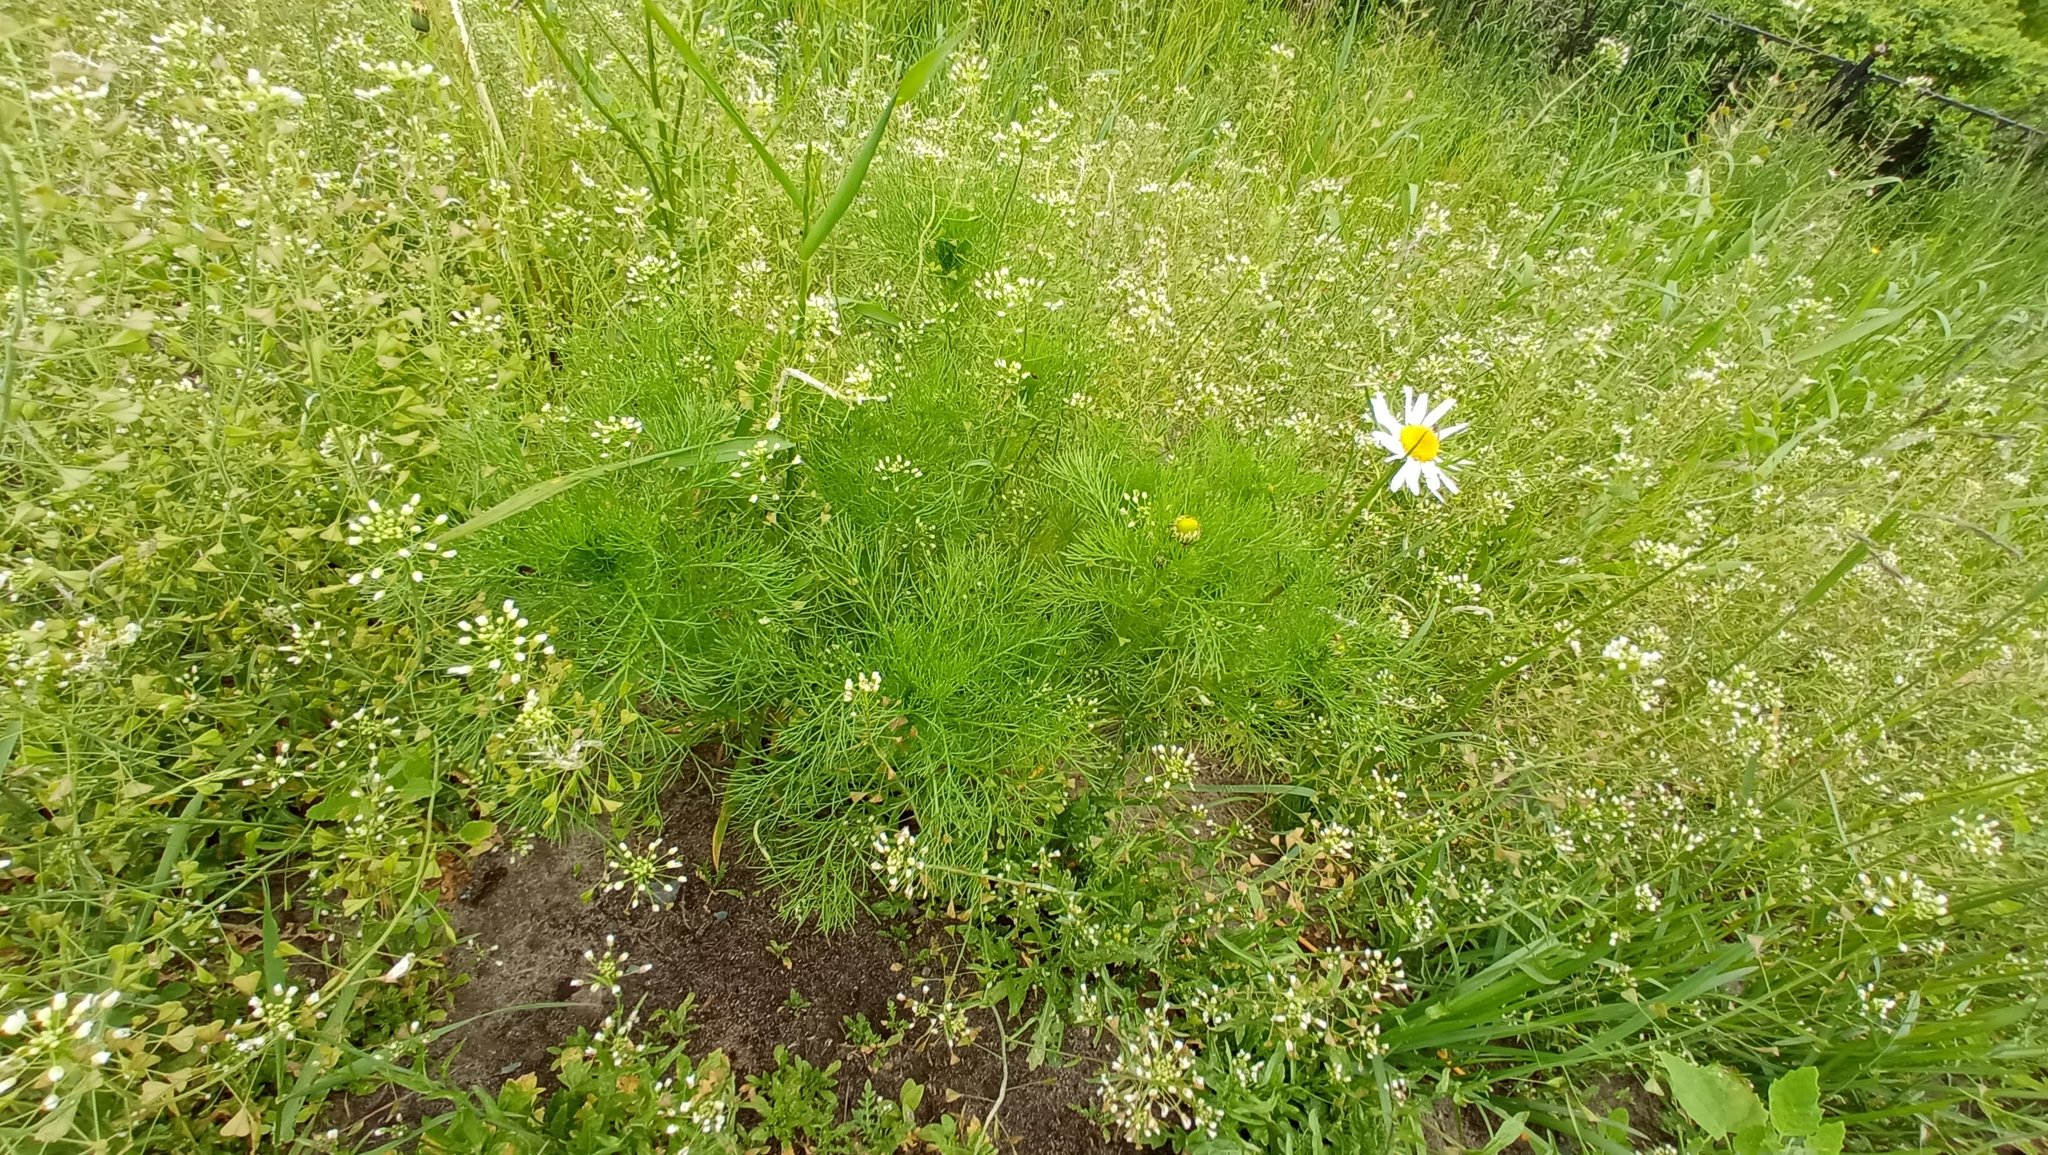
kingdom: Plantae
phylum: Tracheophyta
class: Magnoliopsida
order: Asterales
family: Asteraceae
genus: Tripleurospermum
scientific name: Tripleurospermum inodorum
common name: Scentless mayweed
